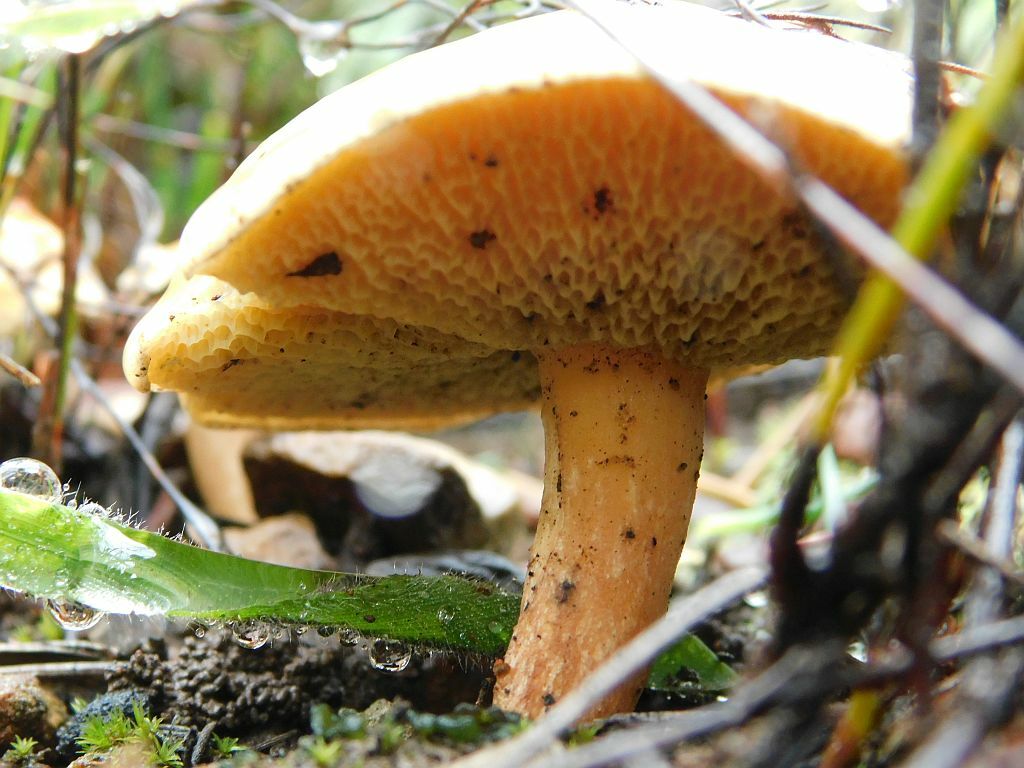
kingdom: Fungi
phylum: Basidiomycota
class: Agaricomycetes
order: Boletales
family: Suillaceae
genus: Suillus
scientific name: Suillus bovinus
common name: Bovine bolete
